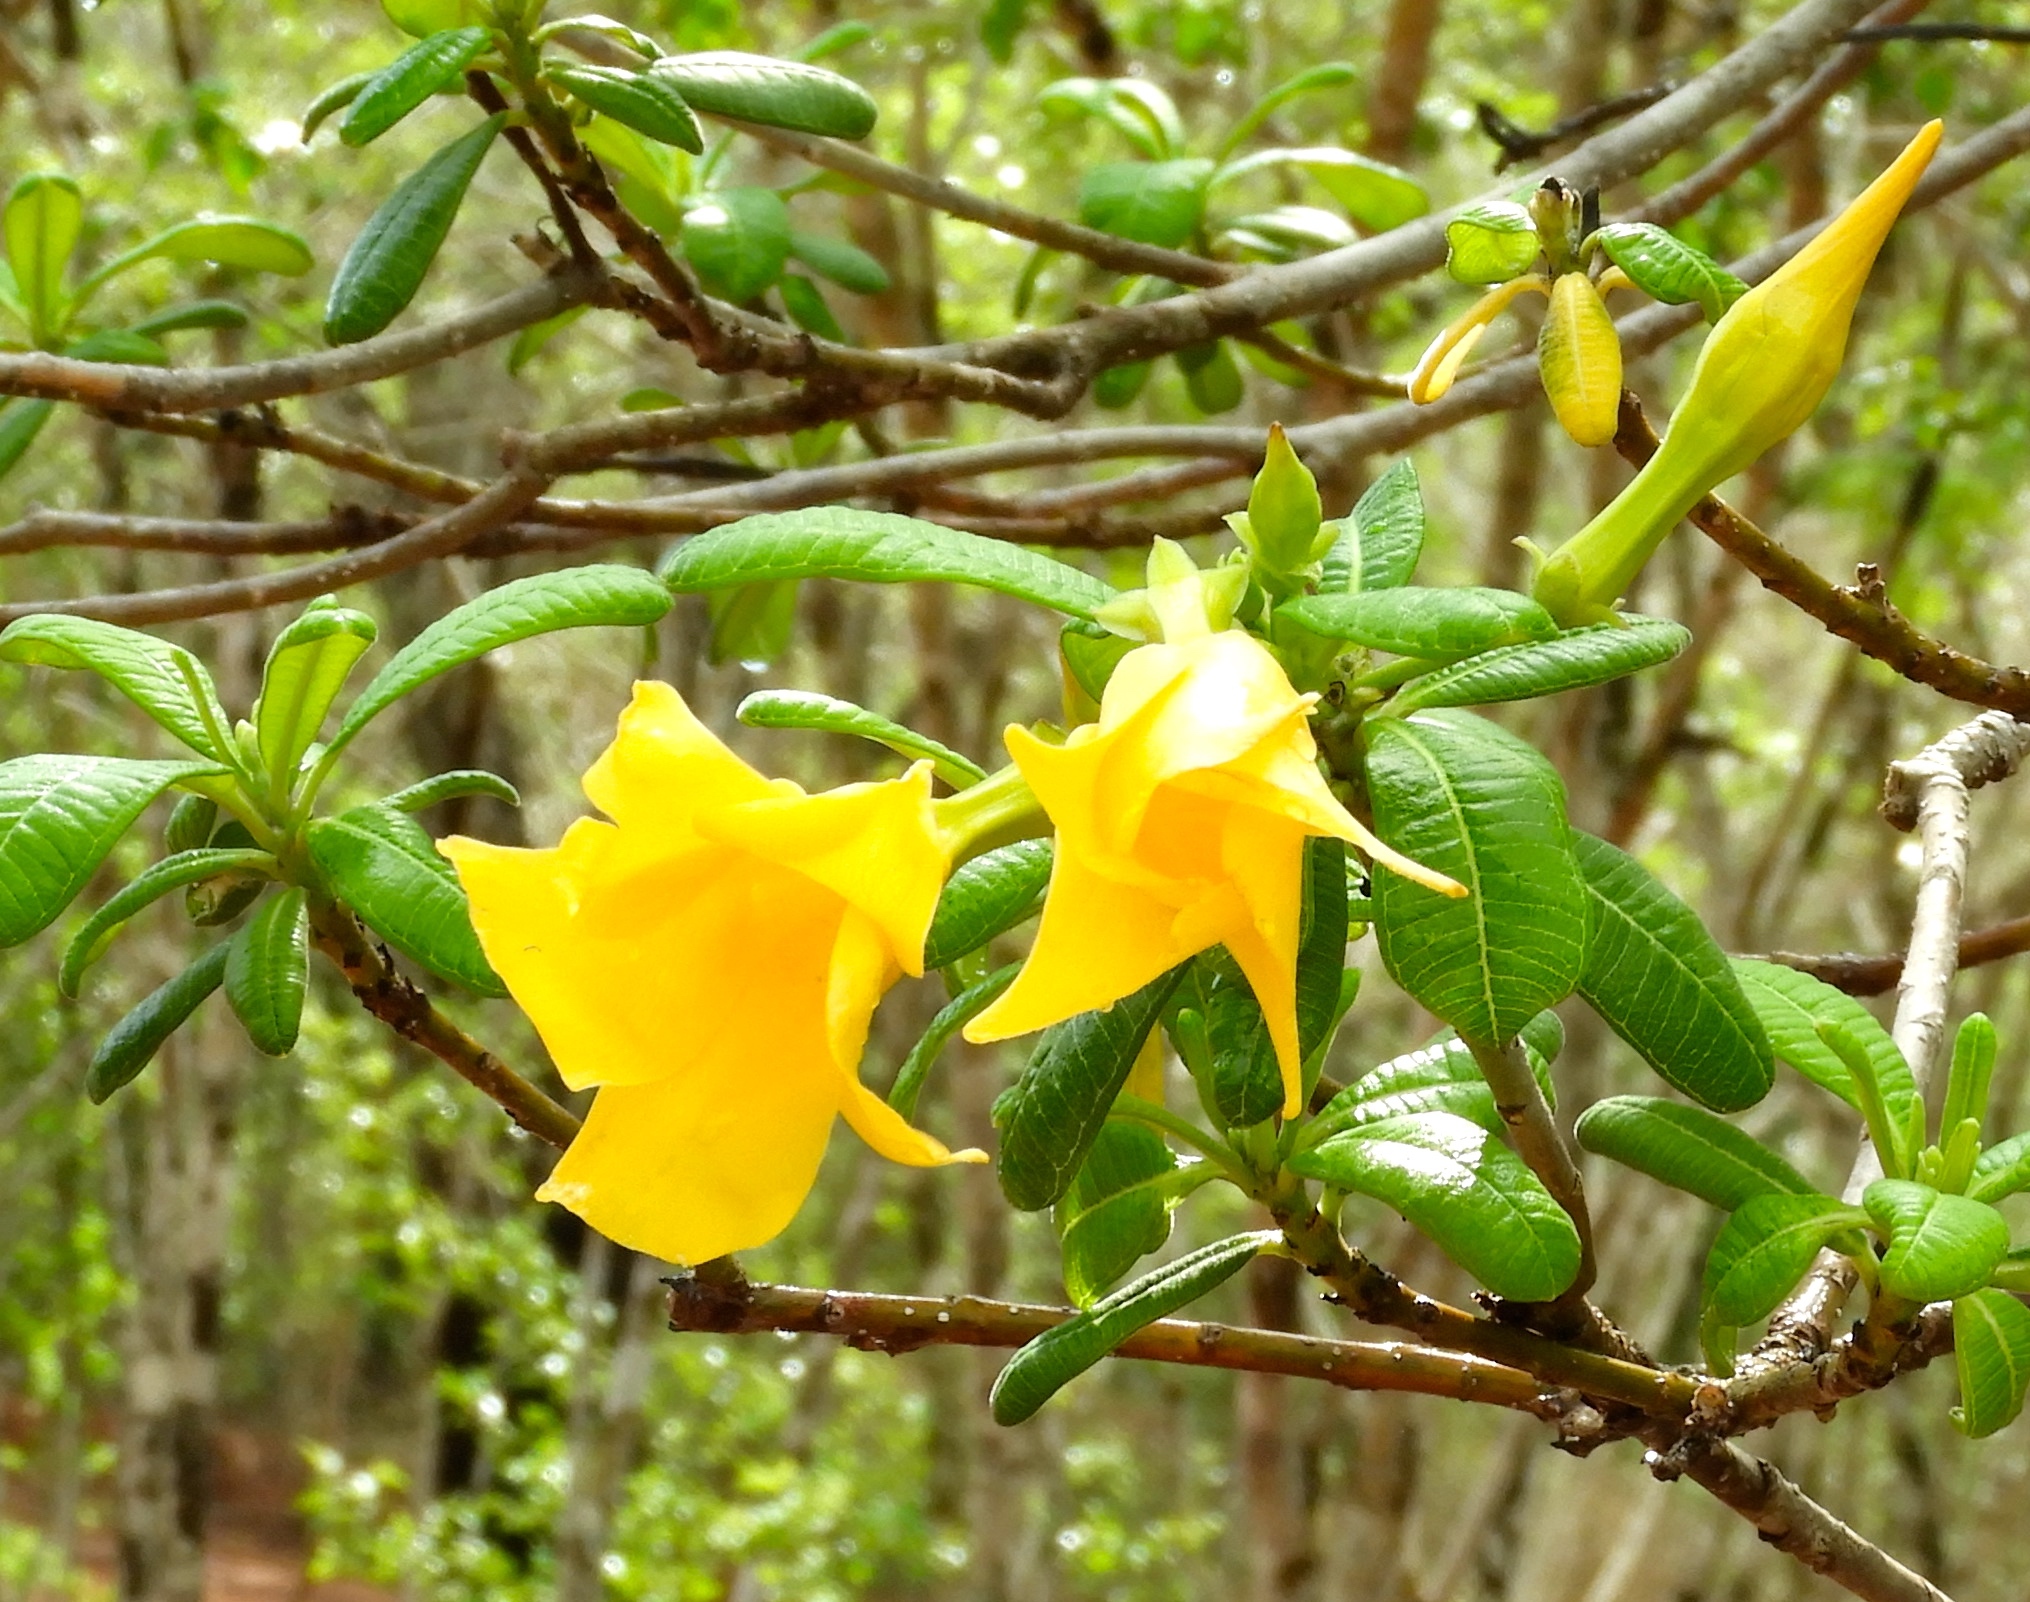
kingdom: Plantae
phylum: Tracheophyta
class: Magnoliopsida
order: Gentianales
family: Apocynaceae
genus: Cascabela
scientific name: Cascabela ovata
